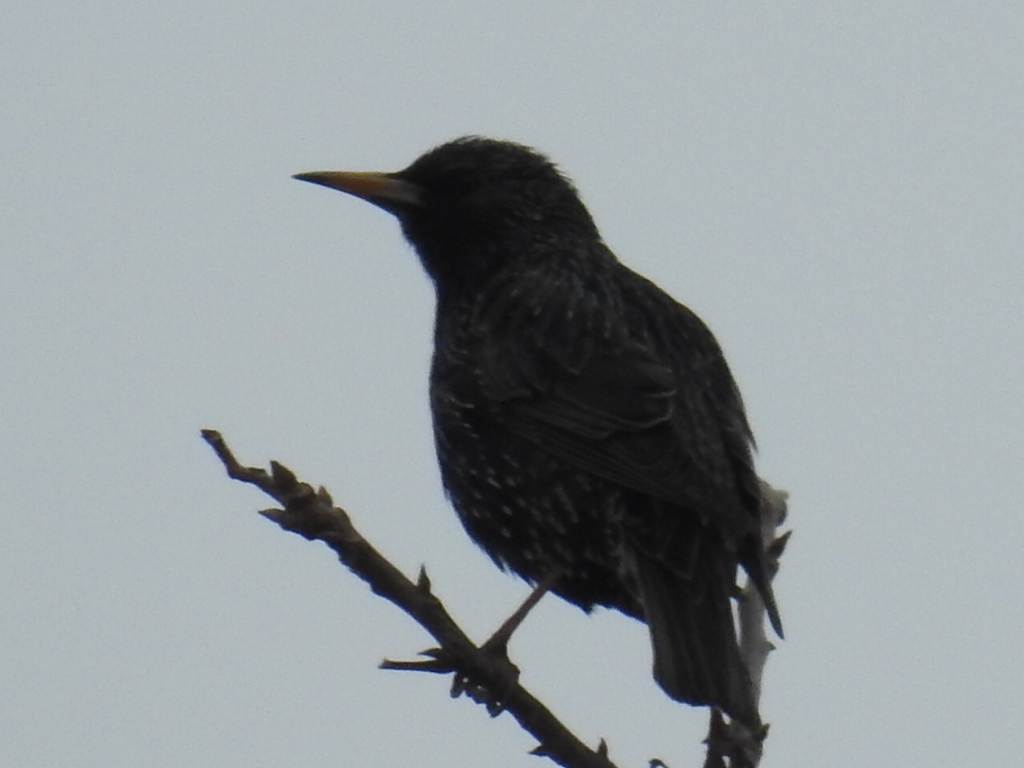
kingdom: Animalia
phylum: Chordata
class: Aves
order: Passeriformes
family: Sturnidae
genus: Sturnus
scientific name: Sturnus vulgaris
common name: Common starling
